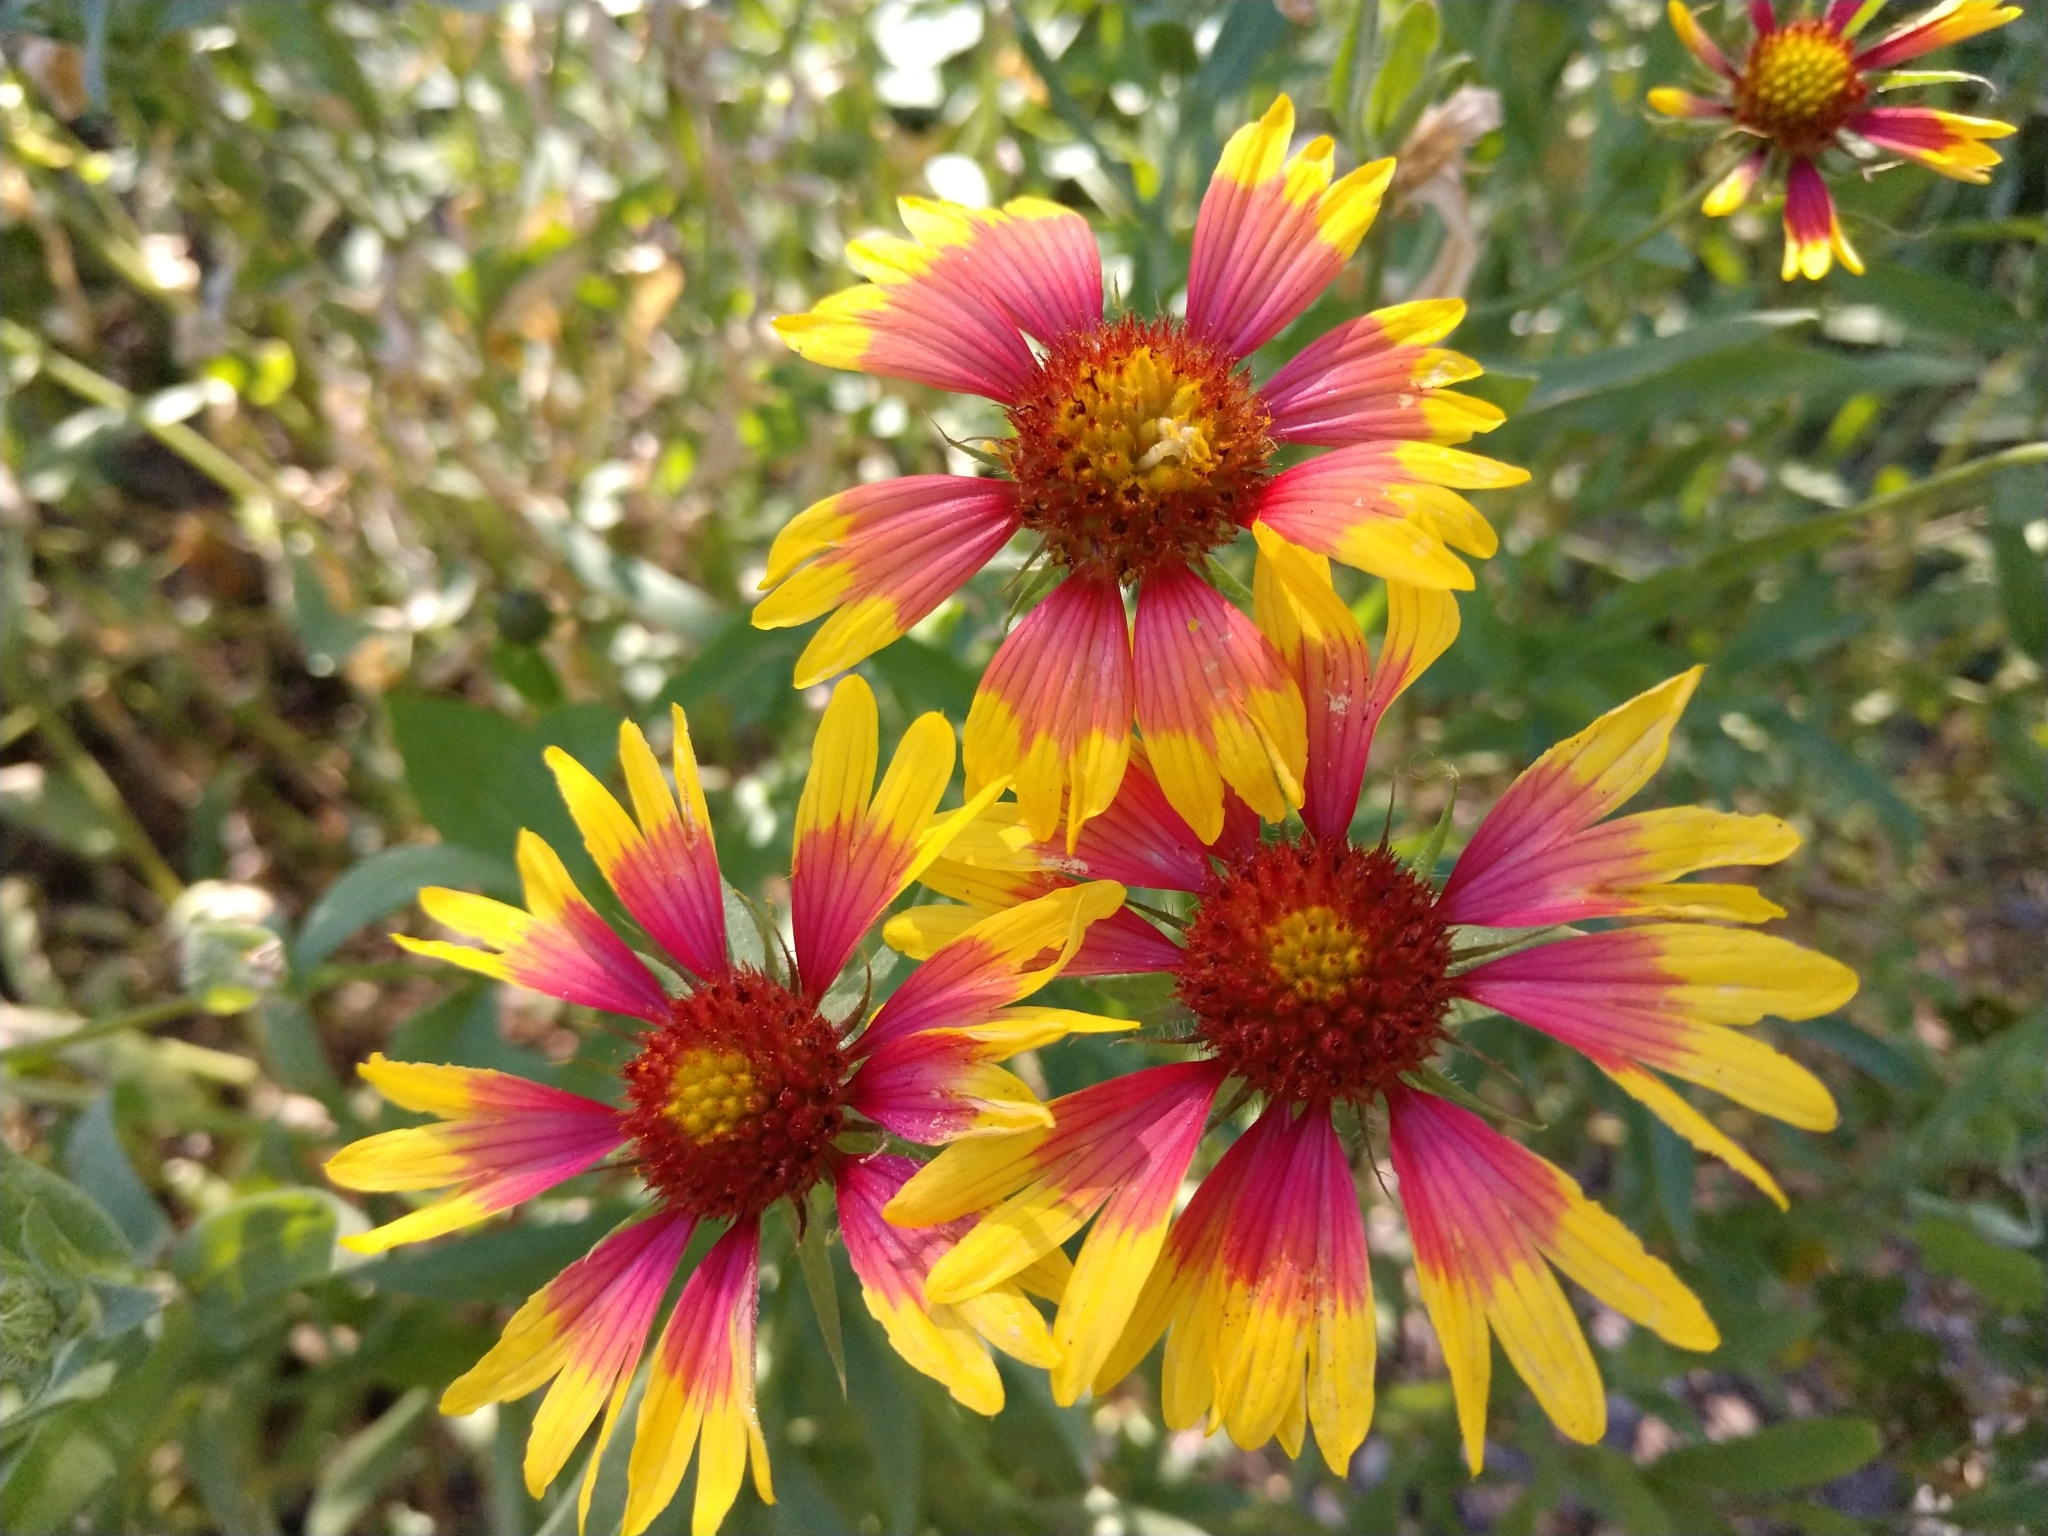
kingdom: Plantae
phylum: Tracheophyta
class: Magnoliopsida
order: Asterales
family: Asteraceae
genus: Gaillardia
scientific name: Gaillardia pulchella
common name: Firewheel
